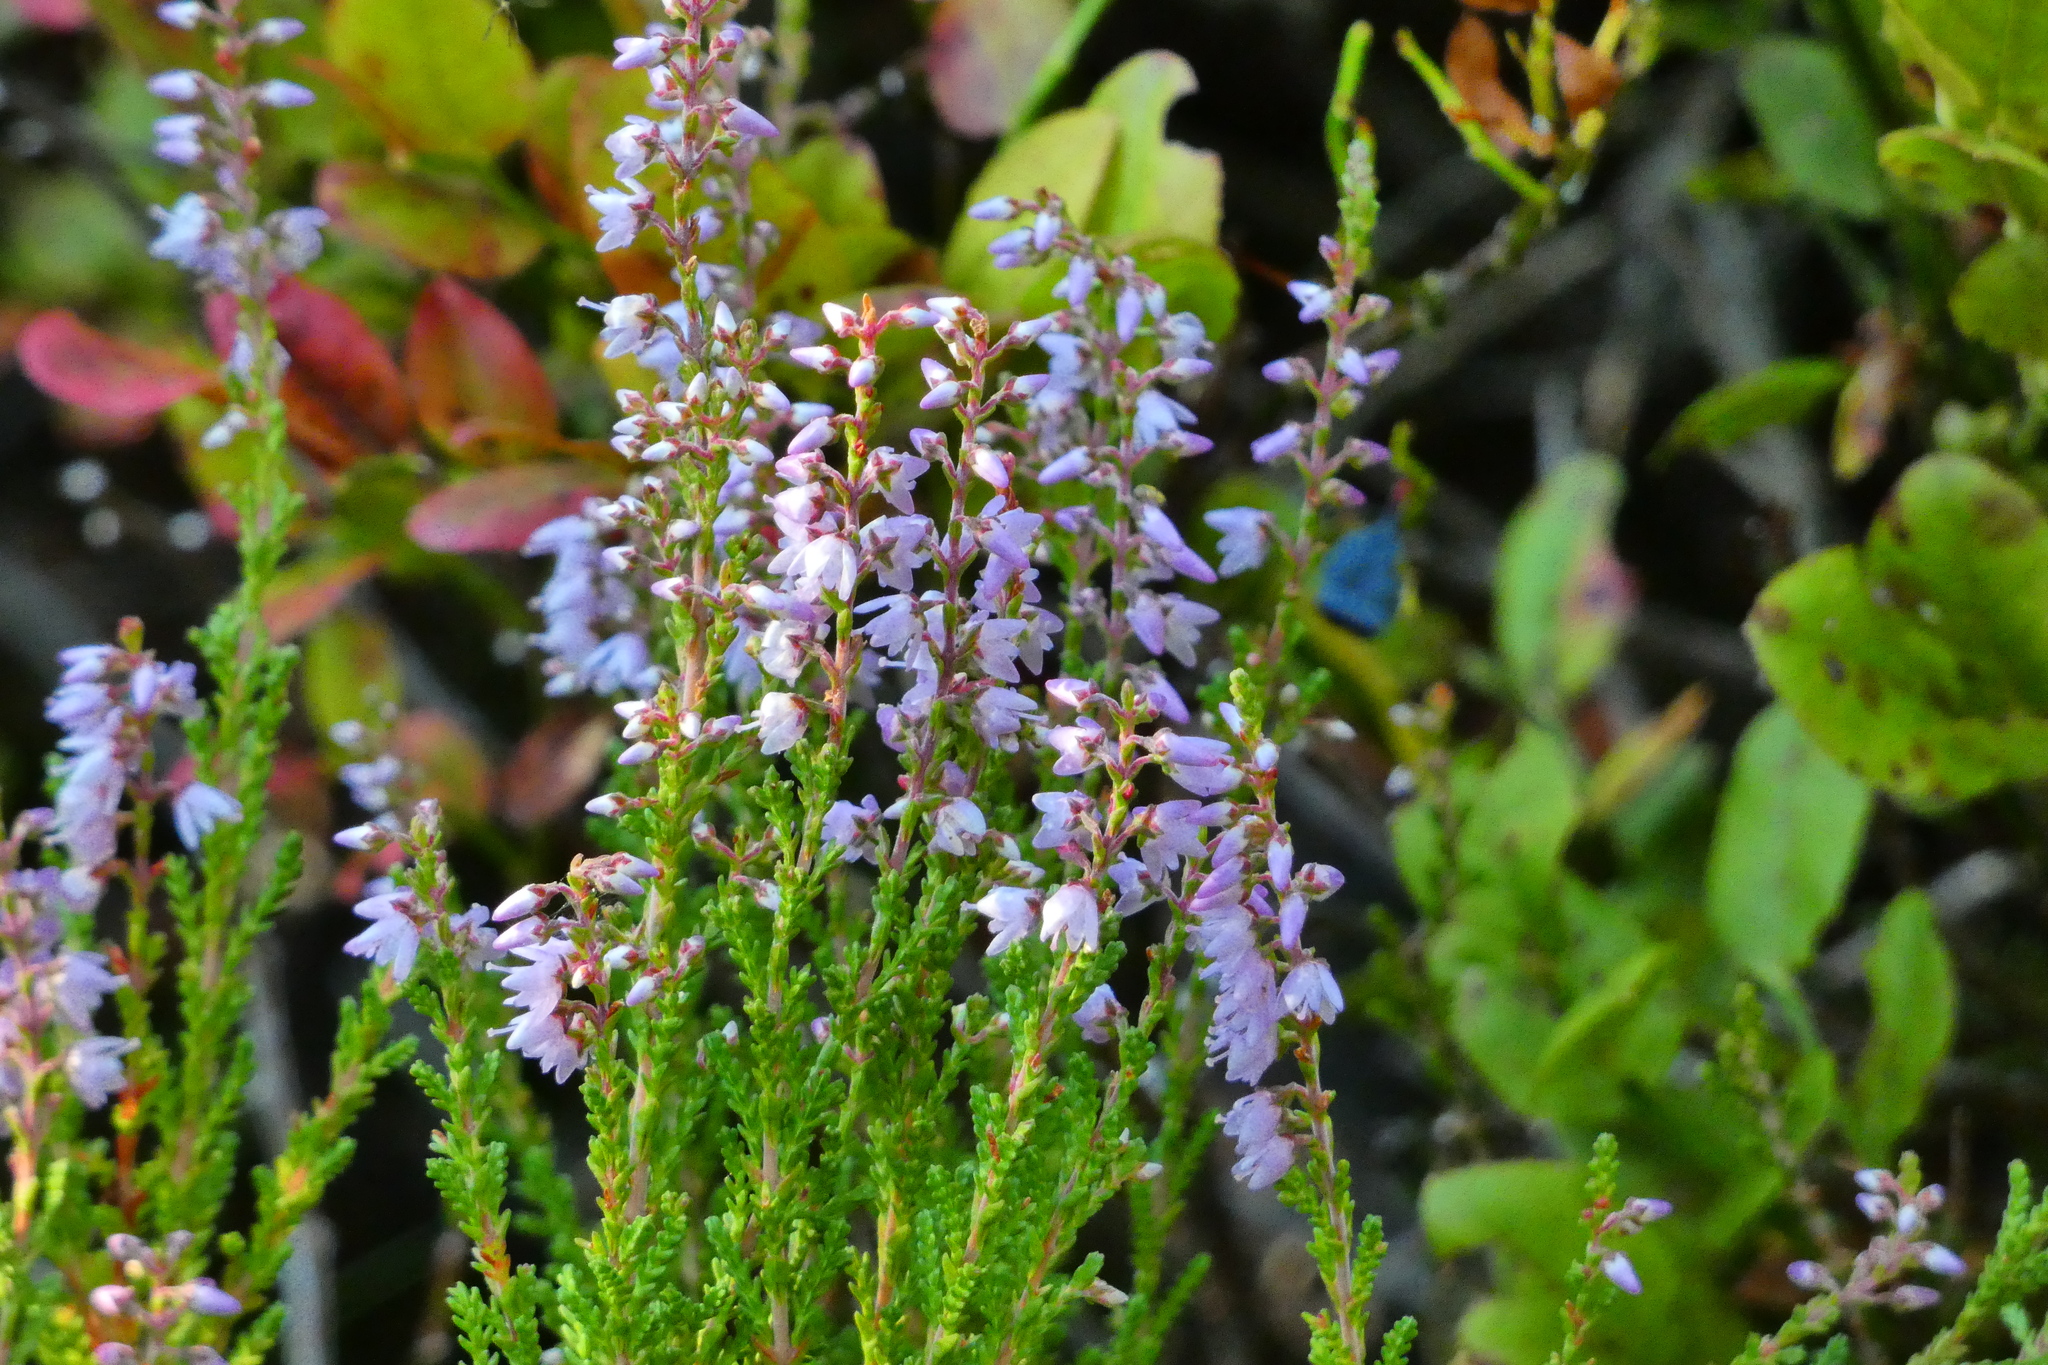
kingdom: Plantae
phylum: Tracheophyta
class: Magnoliopsida
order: Ericales
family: Ericaceae
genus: Calluna
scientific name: Calluna vulgaris
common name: Heather
